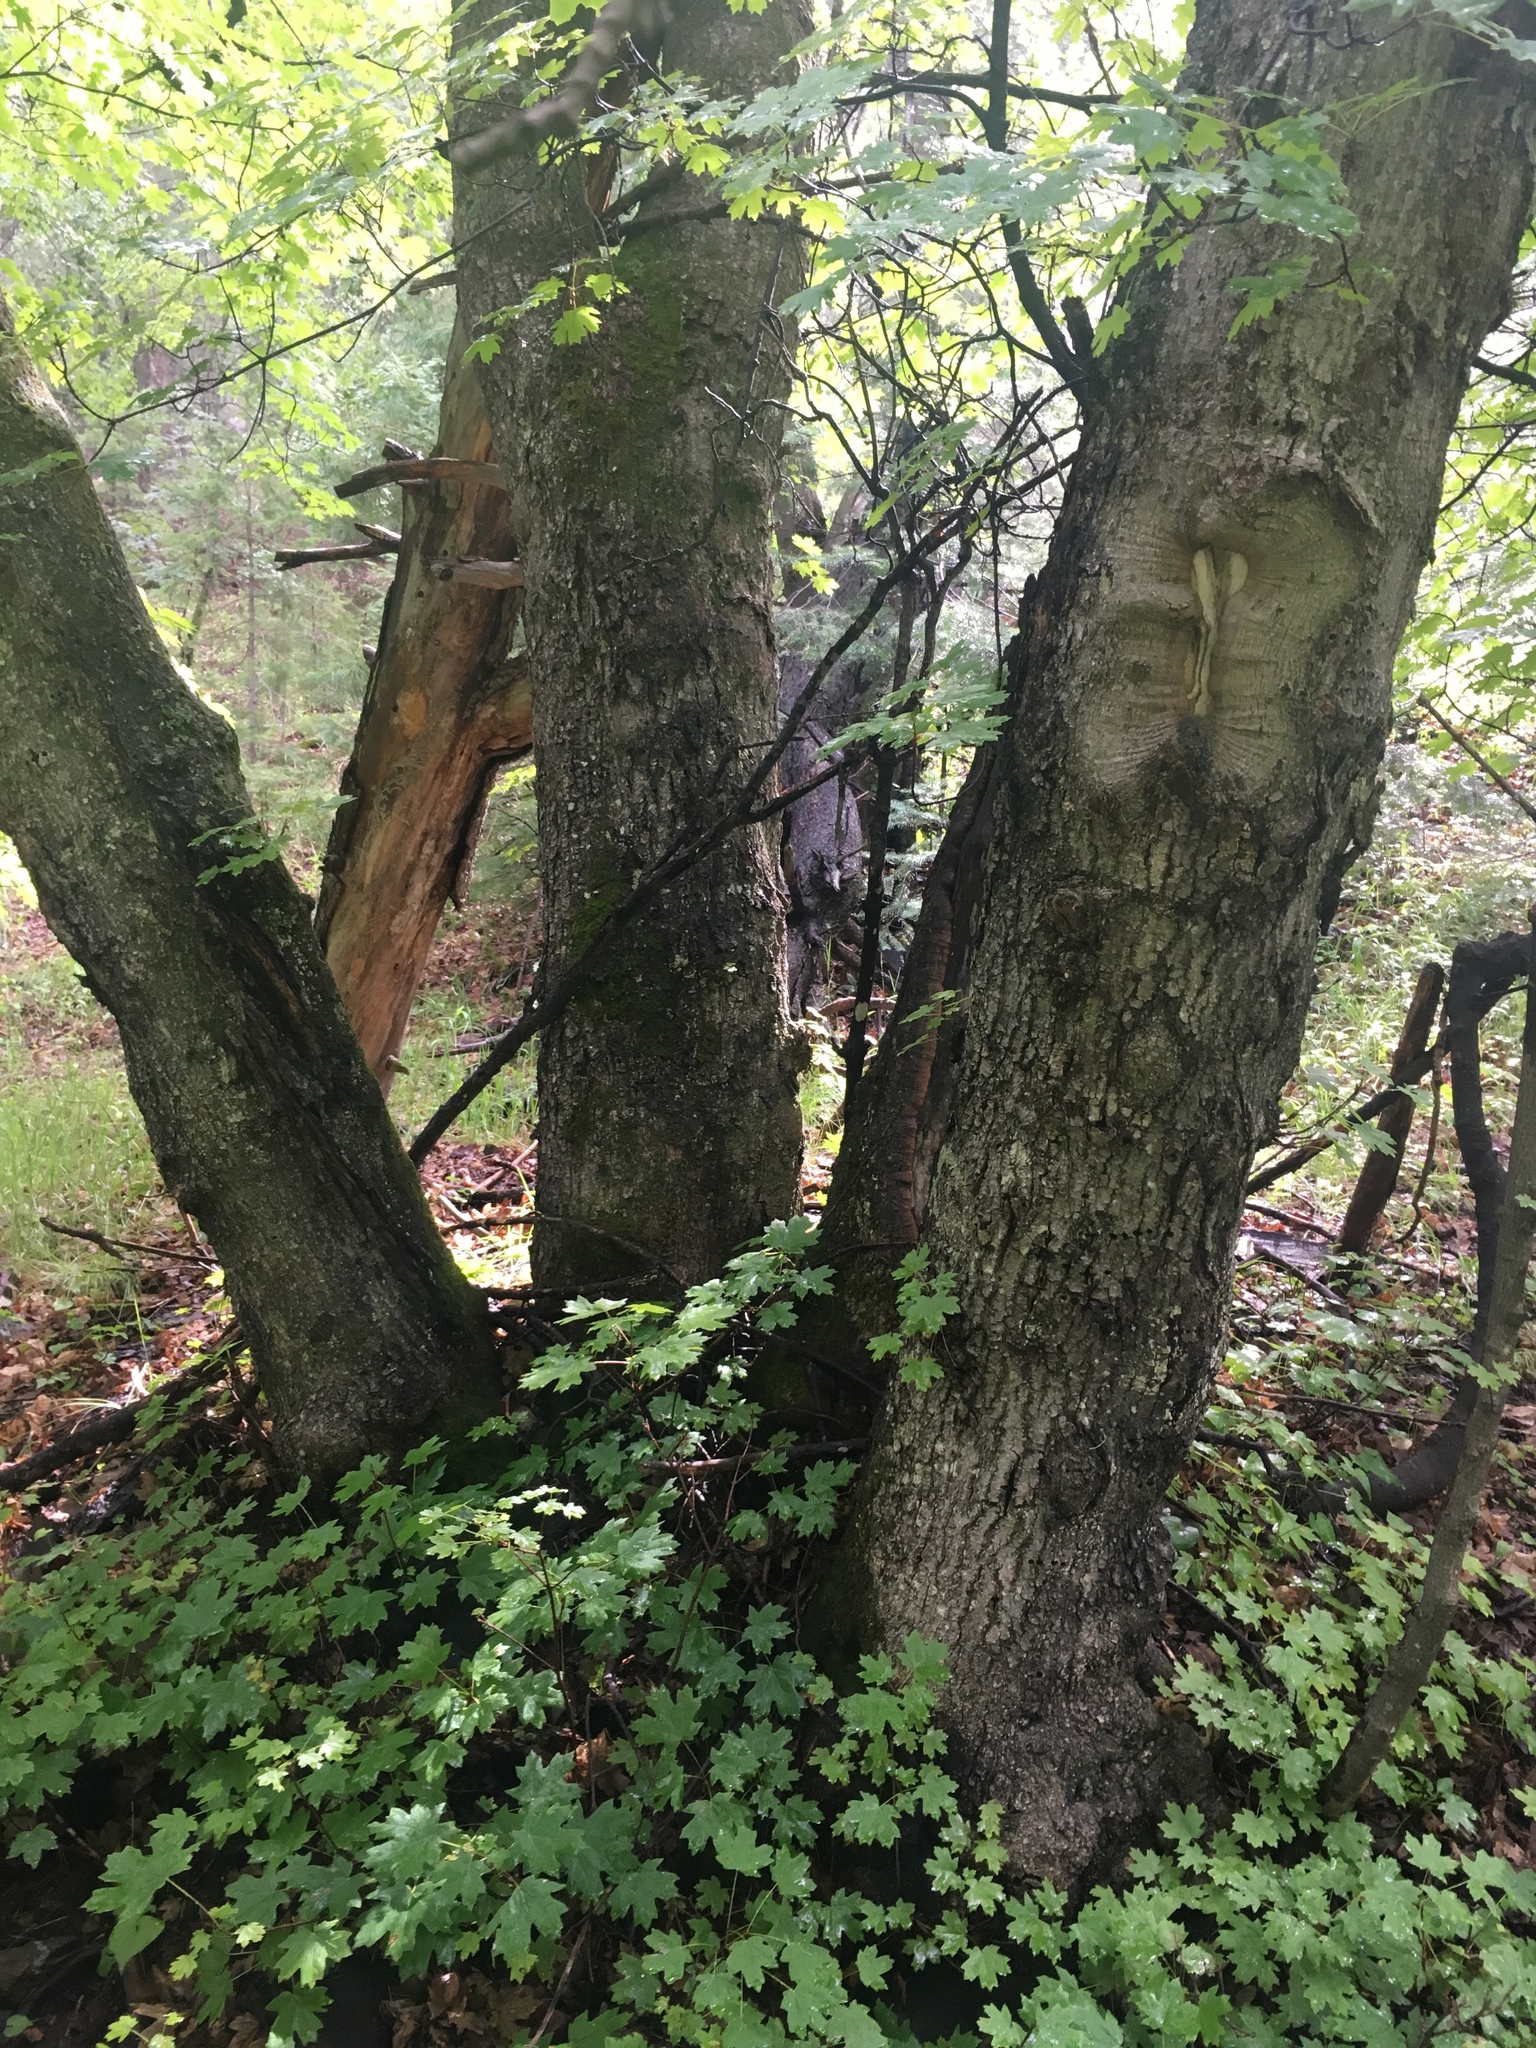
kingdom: Plantae
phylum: Tracheophyta
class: Magnoliopsida
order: Sapindales
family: Sapindaceae
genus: Acer
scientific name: Acer grandidentatum
